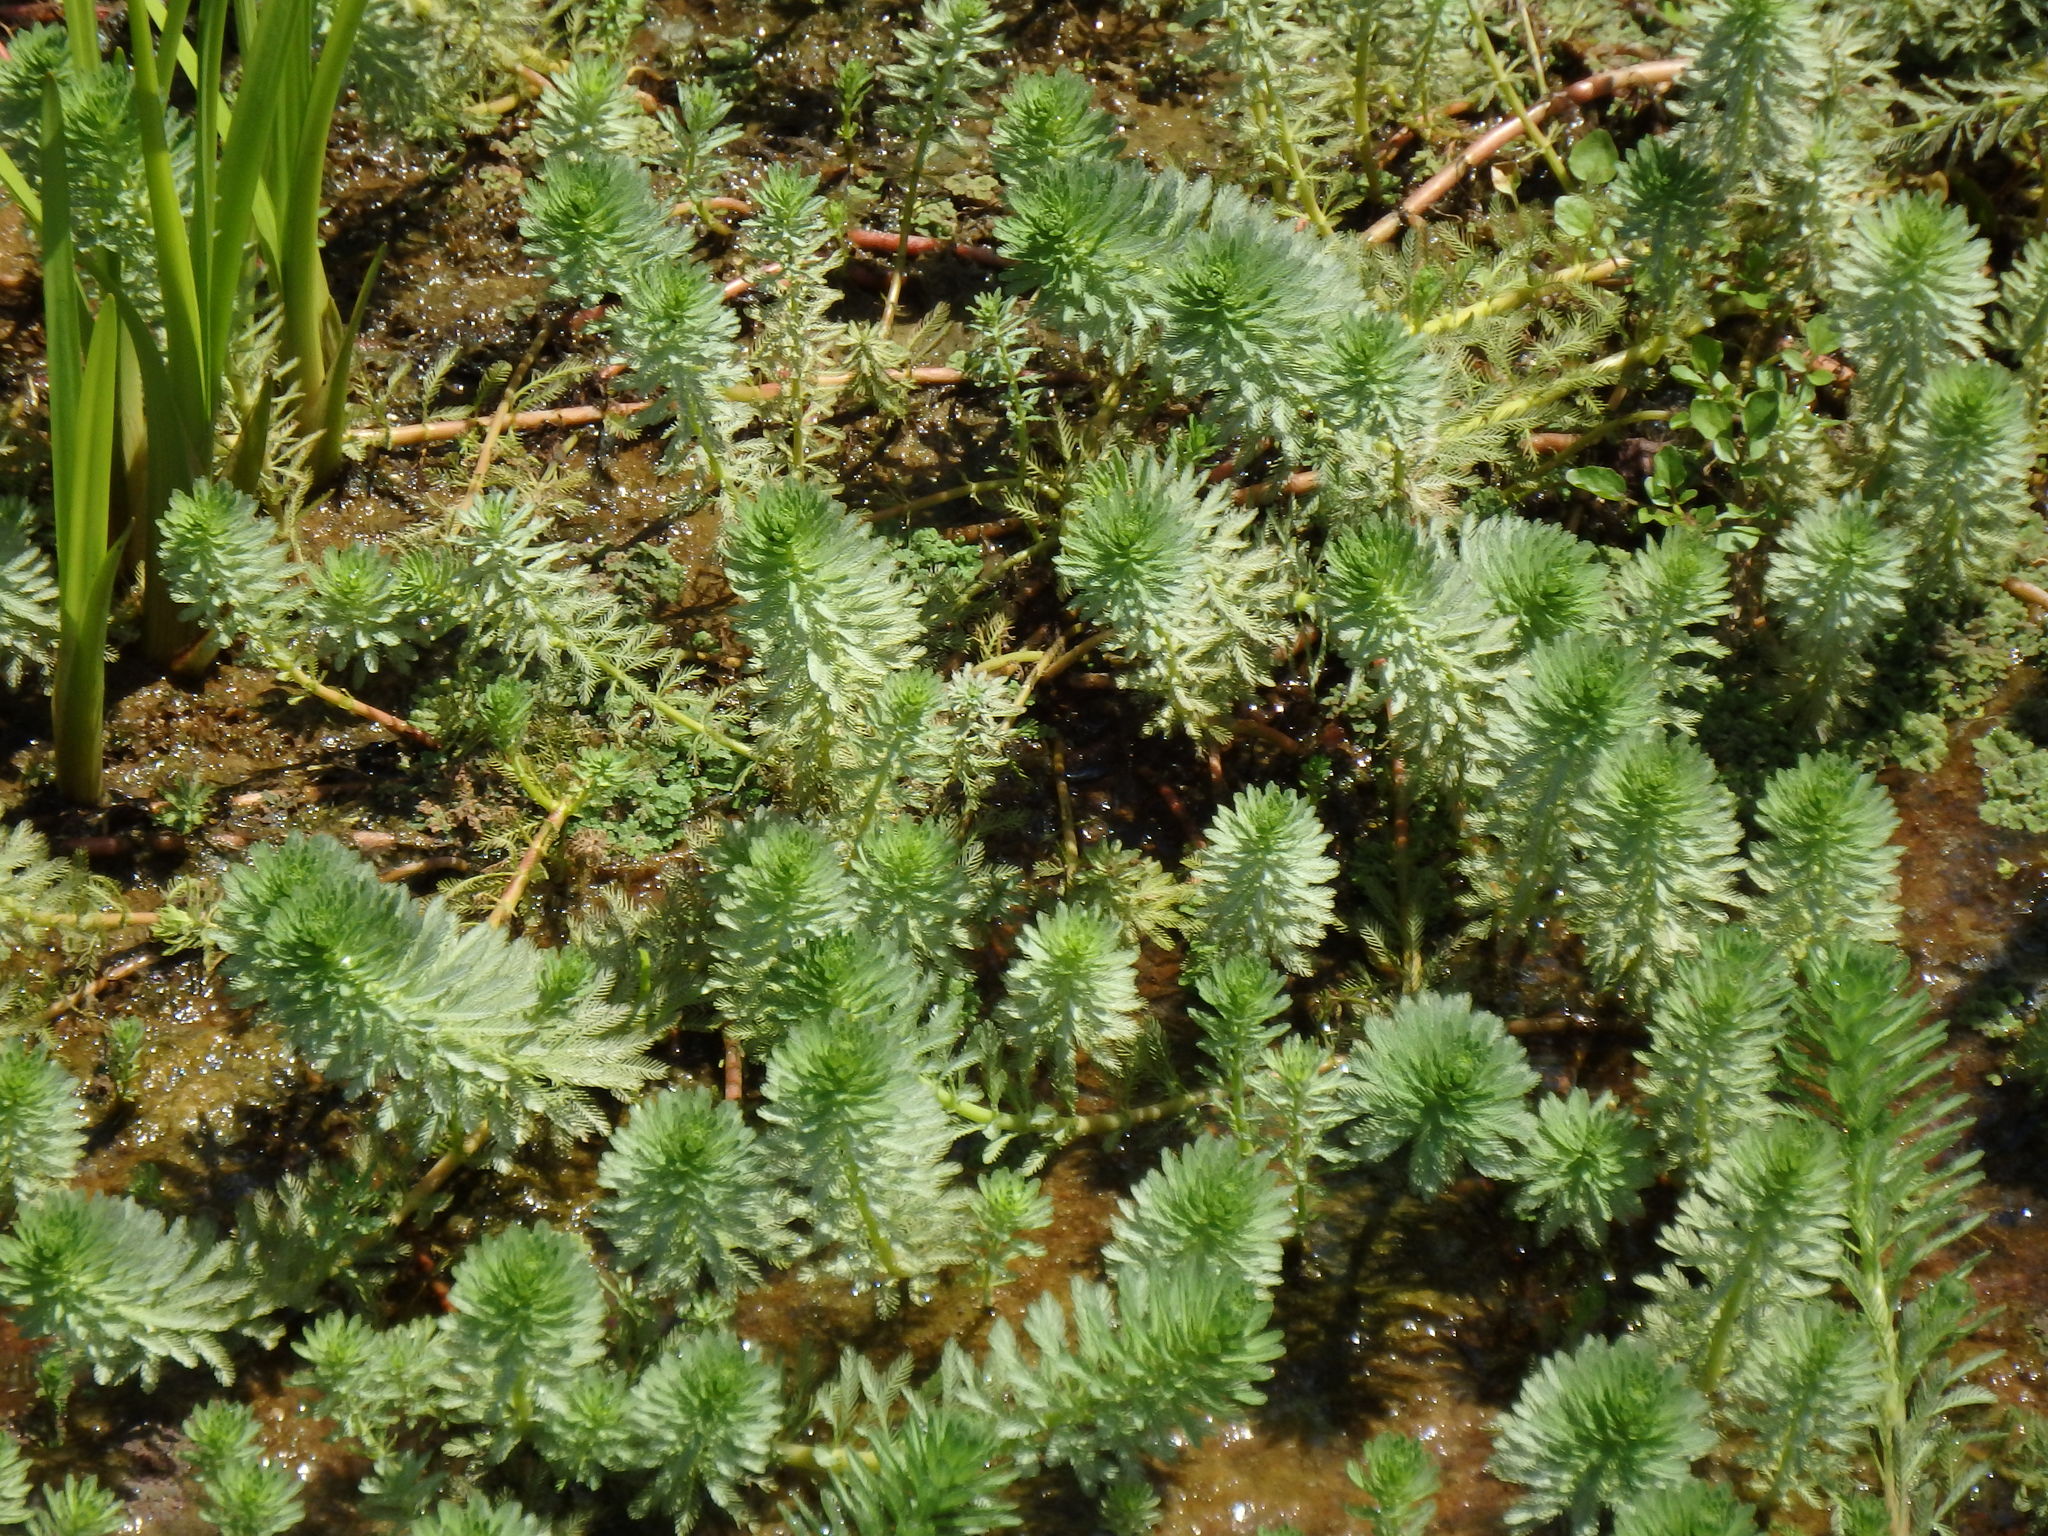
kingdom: Plantae
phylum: Tracheophyta
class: Magnoliopsida
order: Saxifragales
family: Haloragaceae
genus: Myriophyllum
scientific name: Myriophyllum aquaticum
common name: Parrot's feather
